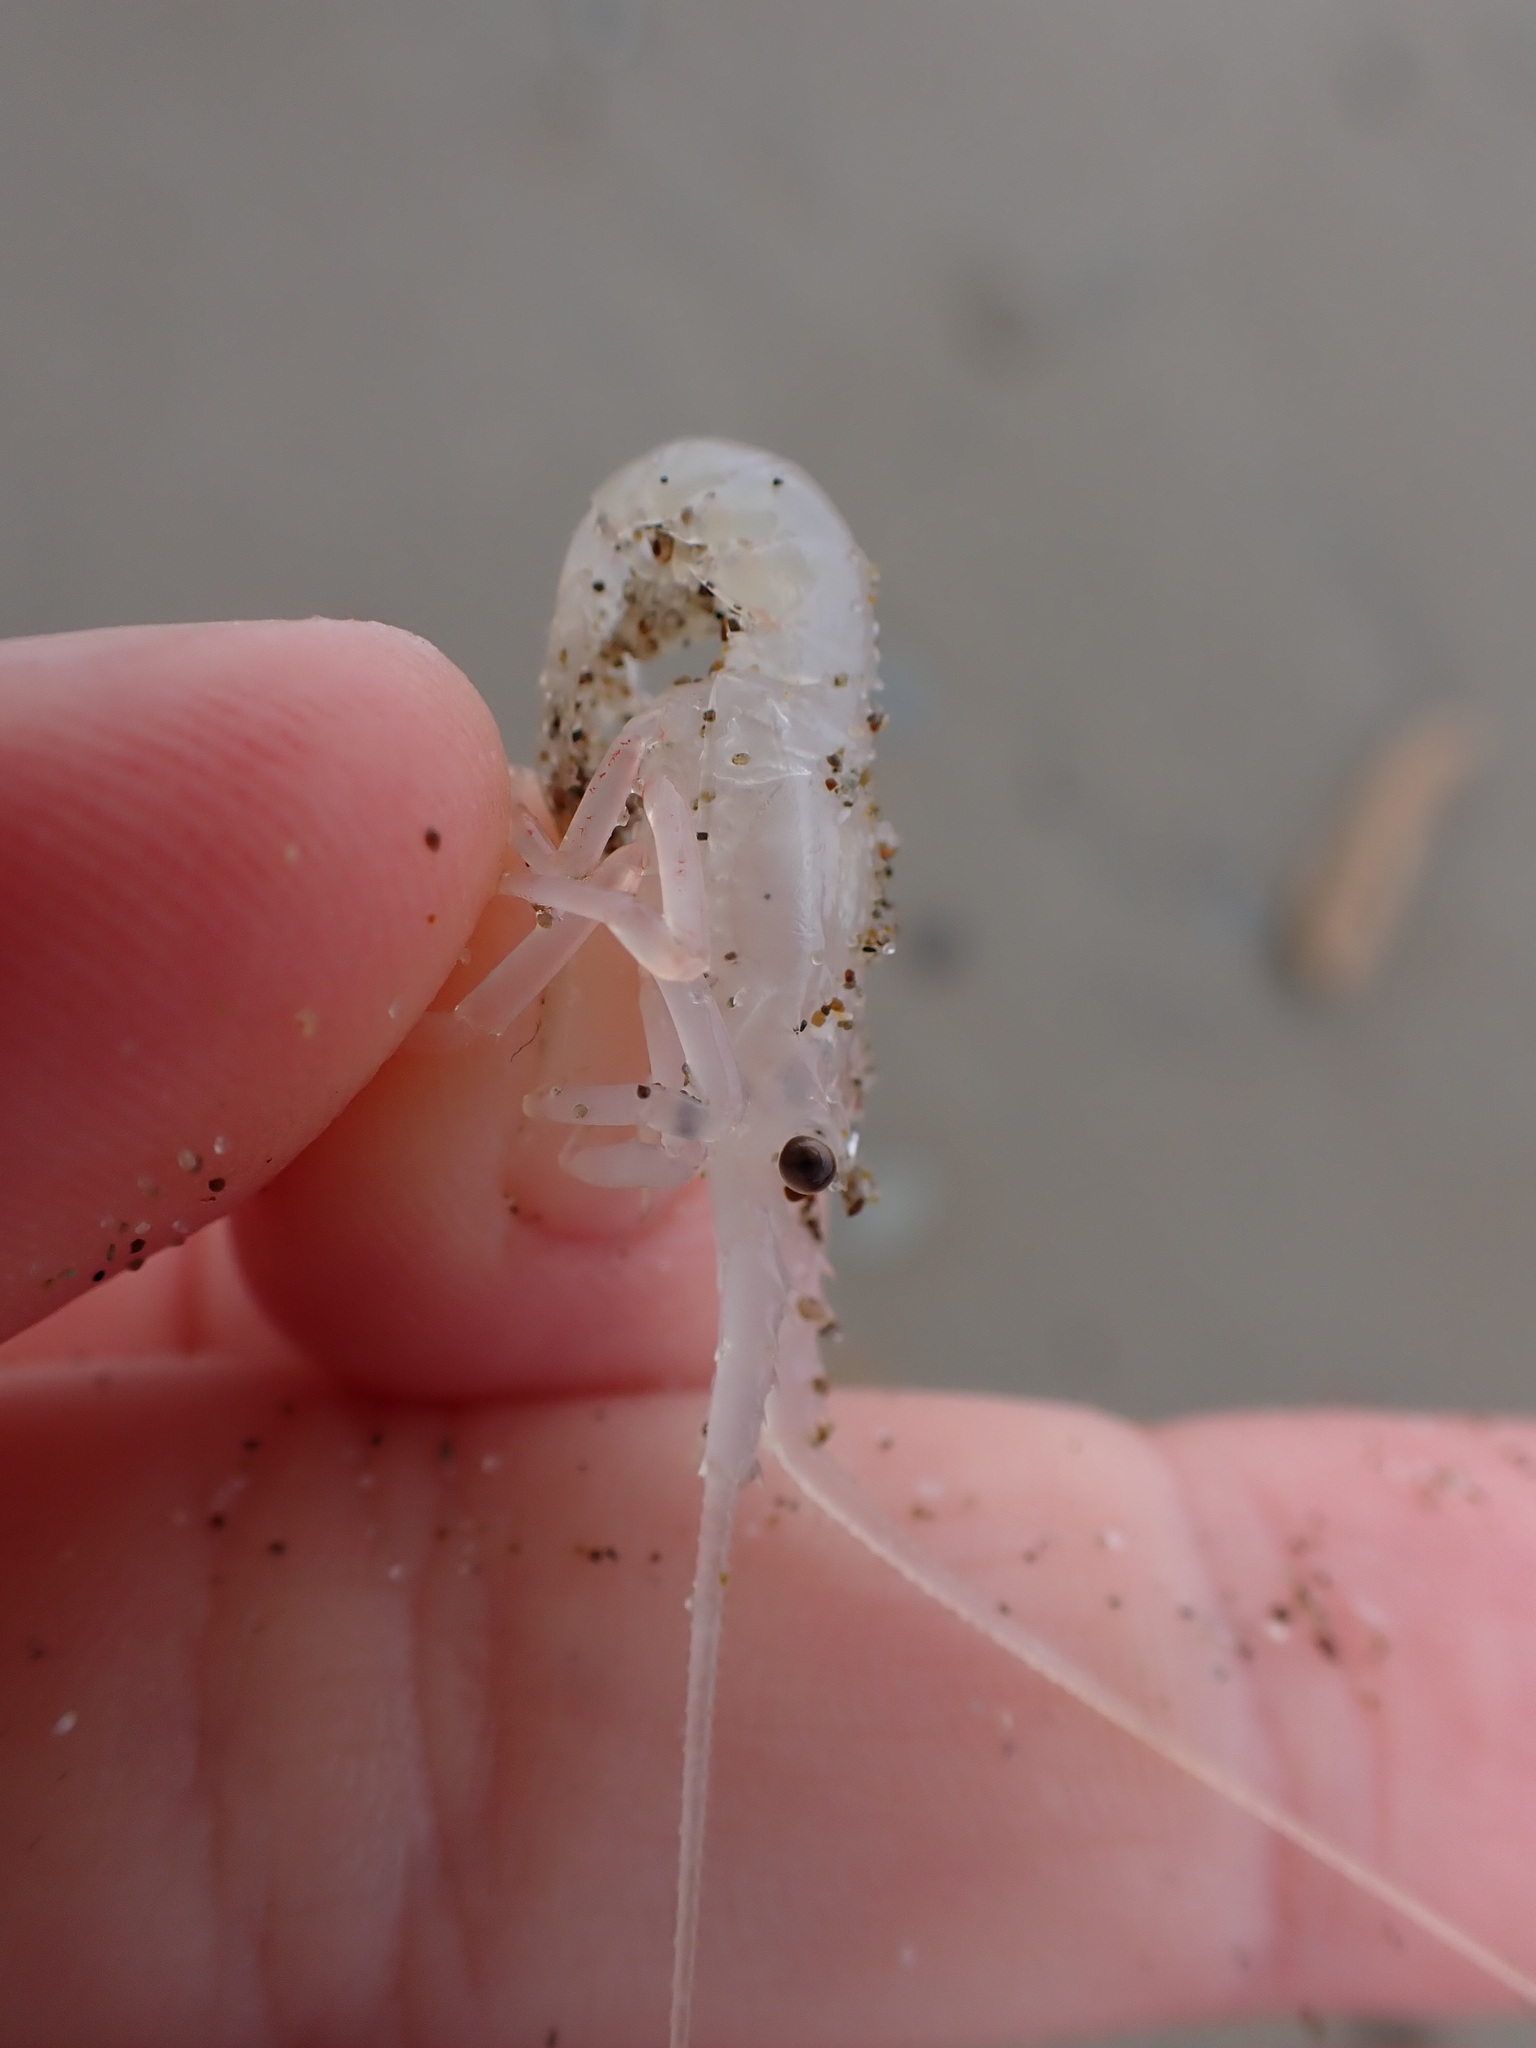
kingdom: Animalia
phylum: Arthropoda
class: Malacostraca
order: Decapoda
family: Palinuridae
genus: Jasus
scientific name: Jasus edwardsii
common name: Red rock lobster
